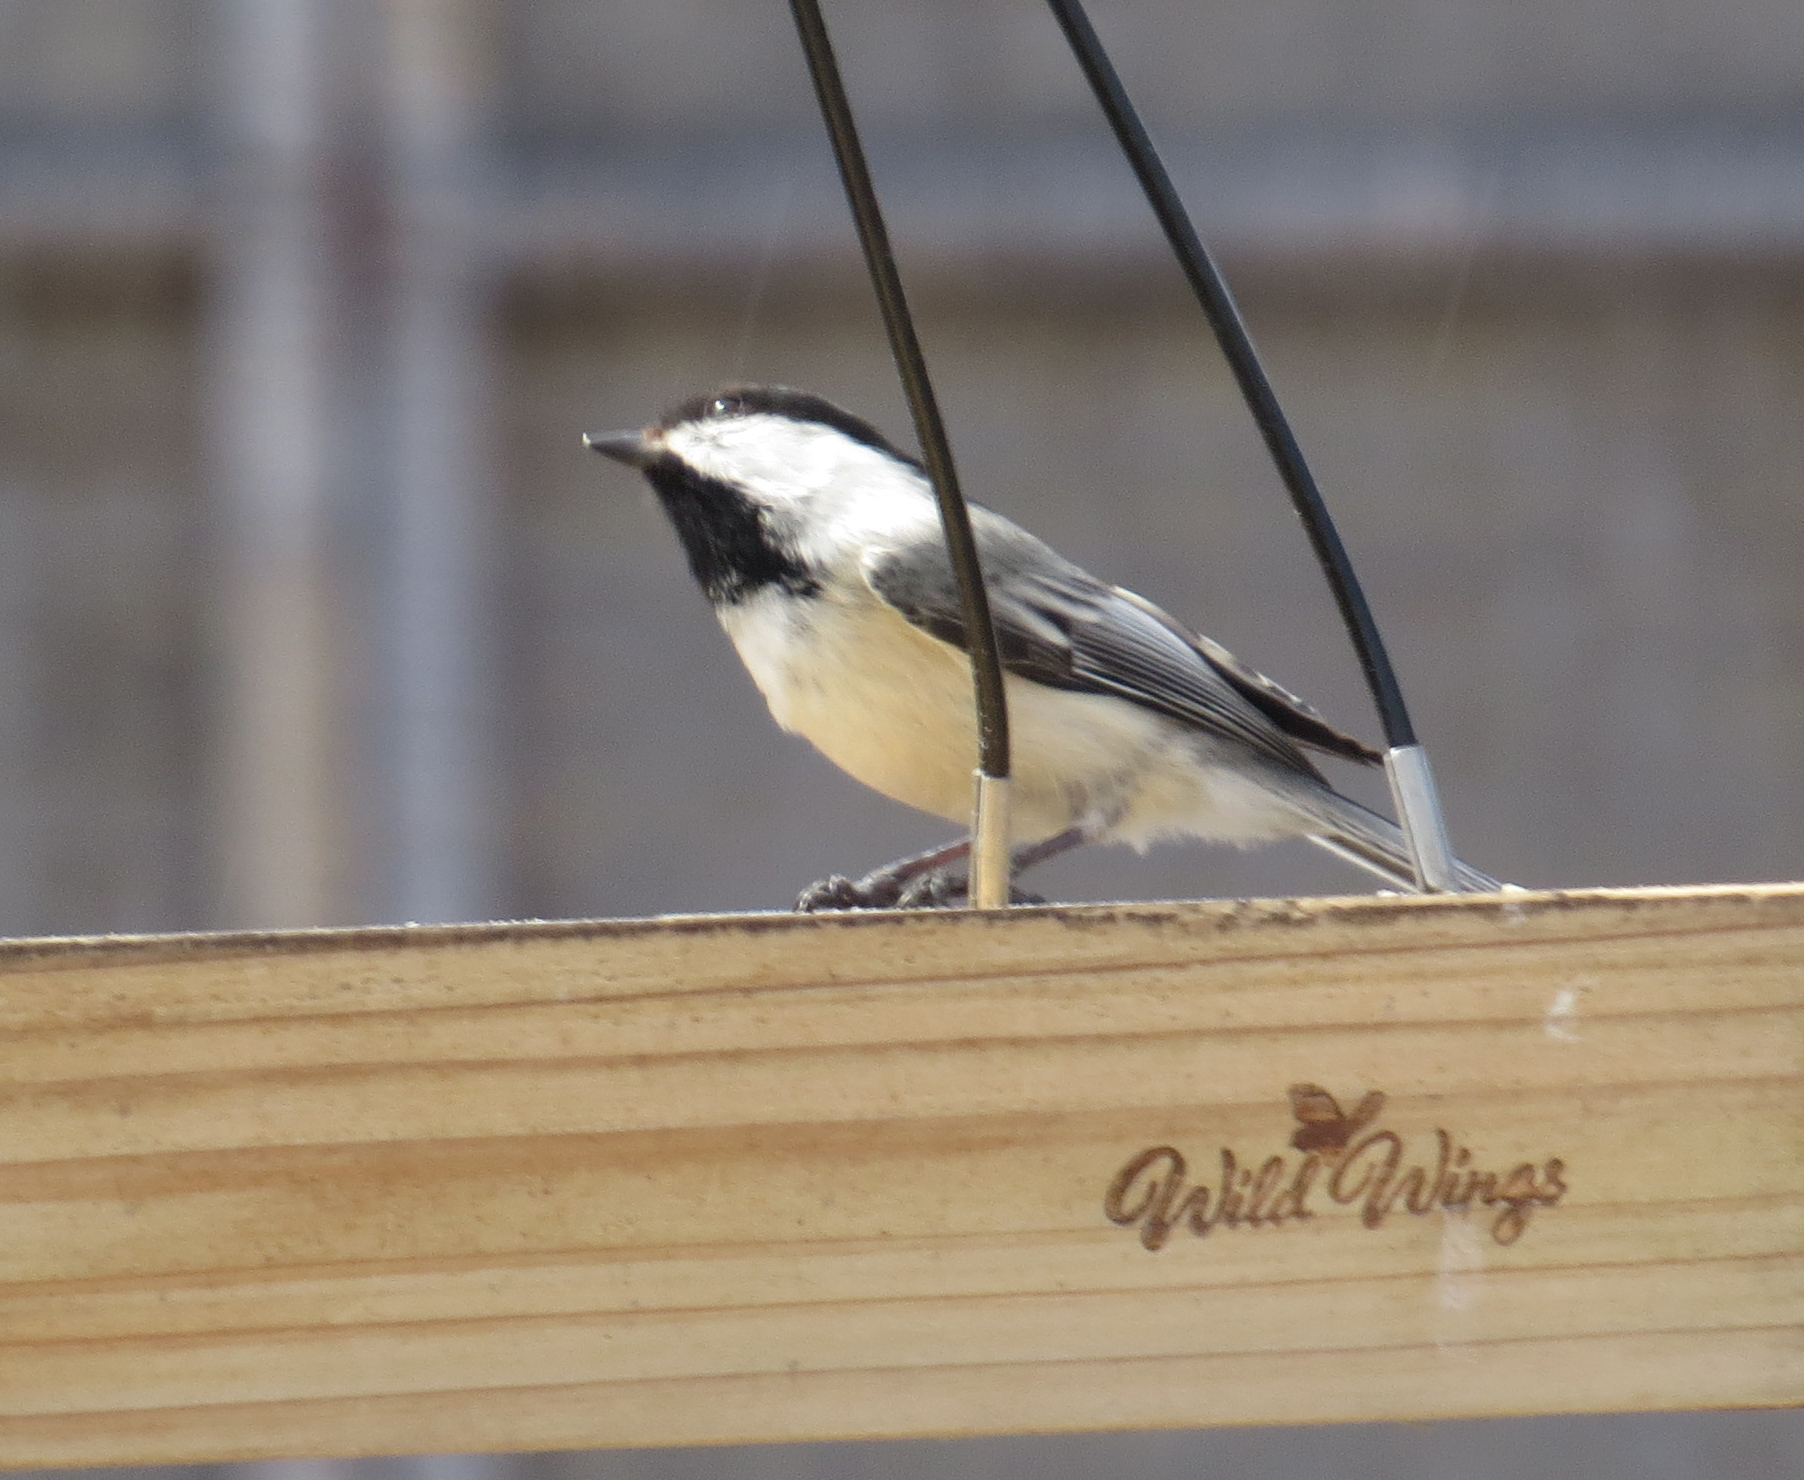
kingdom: Animalia
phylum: Chordata
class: Aves
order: Passeriformes
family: Paridae
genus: Poecile
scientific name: Poecile atricapillus
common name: Black-capped chickadee
